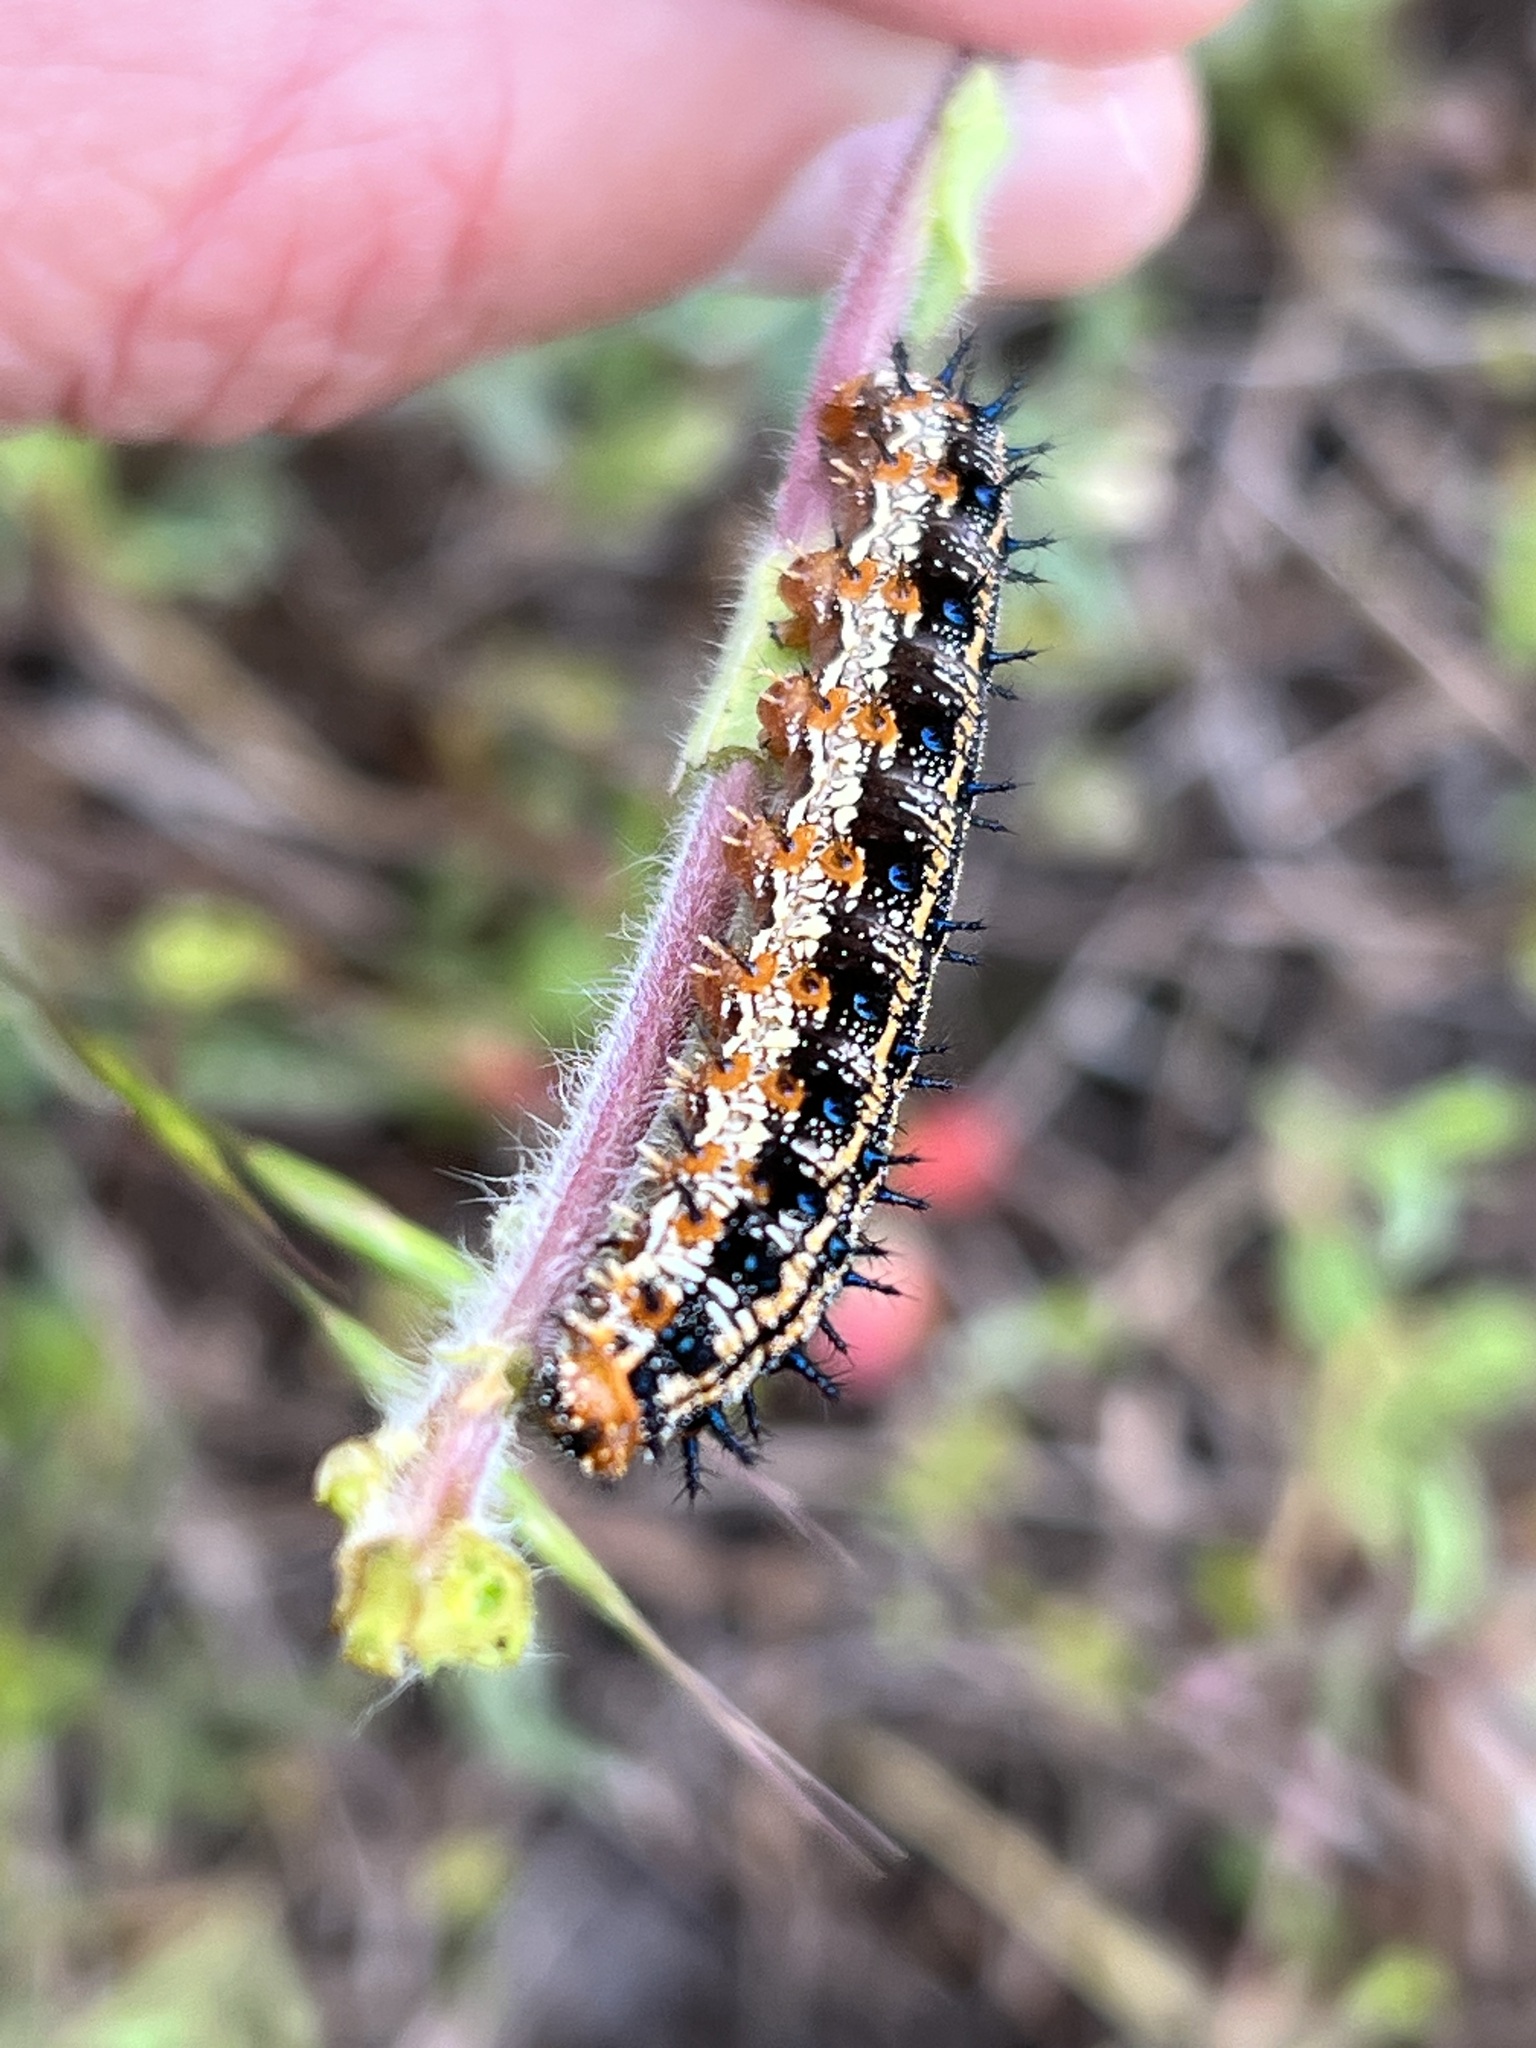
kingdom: Animalia
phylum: Arthropoda
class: Insecta
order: Lepidoptera
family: Nymphalidae
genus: Junonia
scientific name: Junonia coenia
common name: Common buckeye
